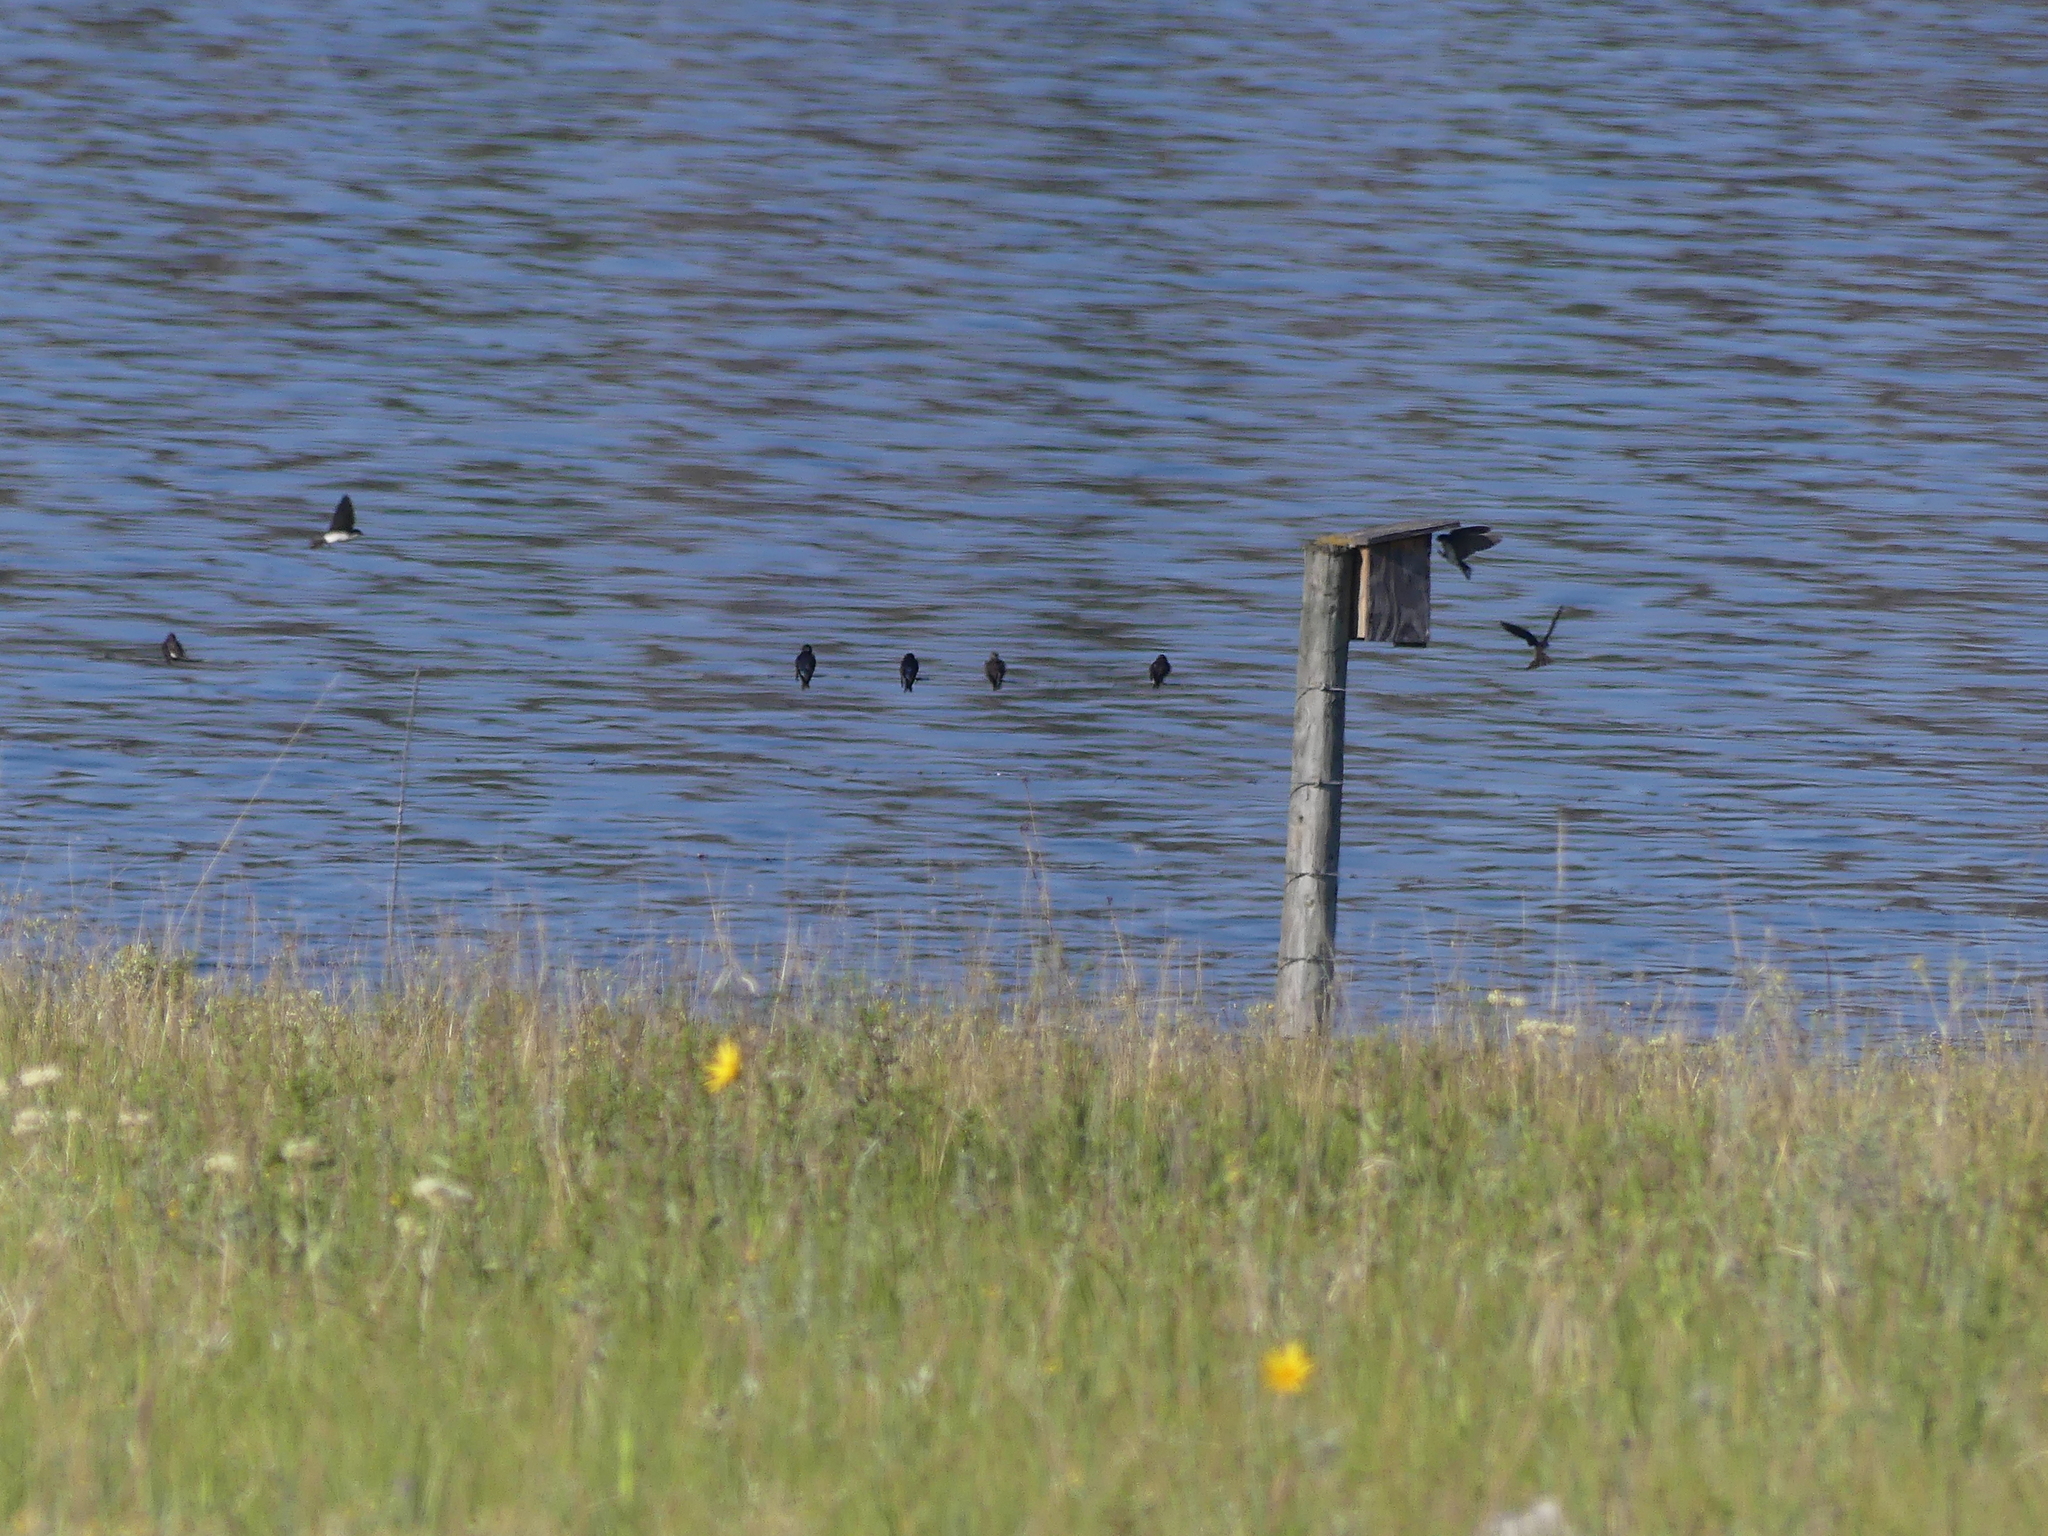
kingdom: Animalia
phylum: Chordata
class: Aves
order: Passeriformes
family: Hirundinidae
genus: Tachycineta
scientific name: Tachycineta bicolor
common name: Tree swallow
